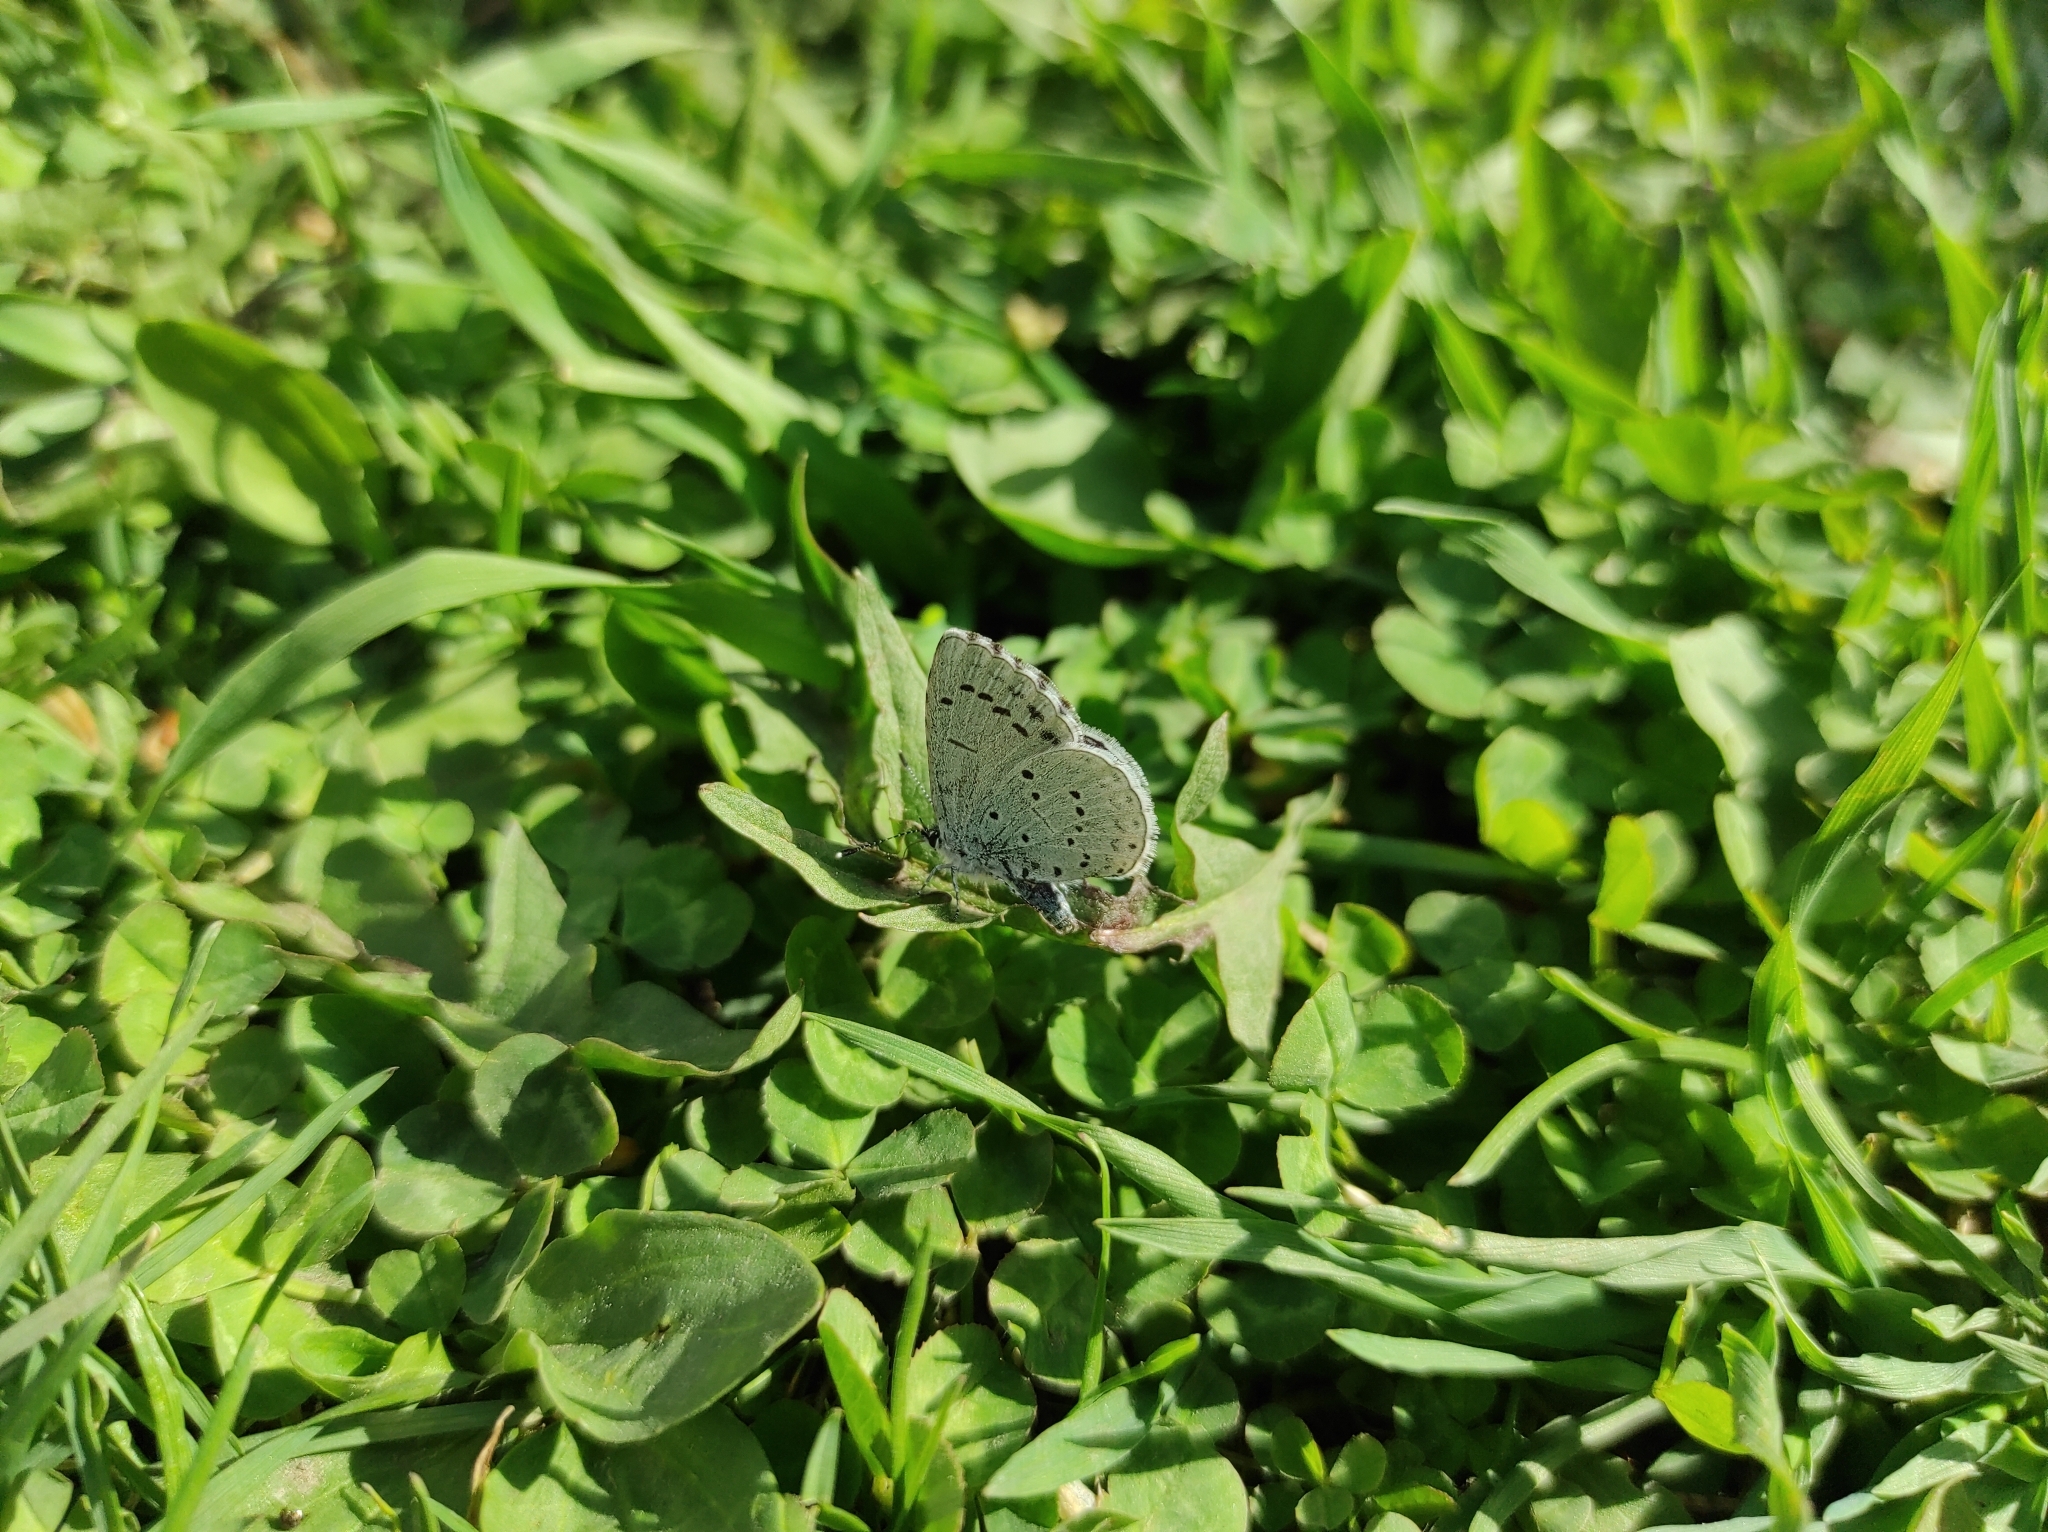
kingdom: Animalia
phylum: Arthropoda
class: Insecta
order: Lepidoptera
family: Lycaenidae
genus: Celastrina
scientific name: Celastrina argiolus
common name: Holly blue
